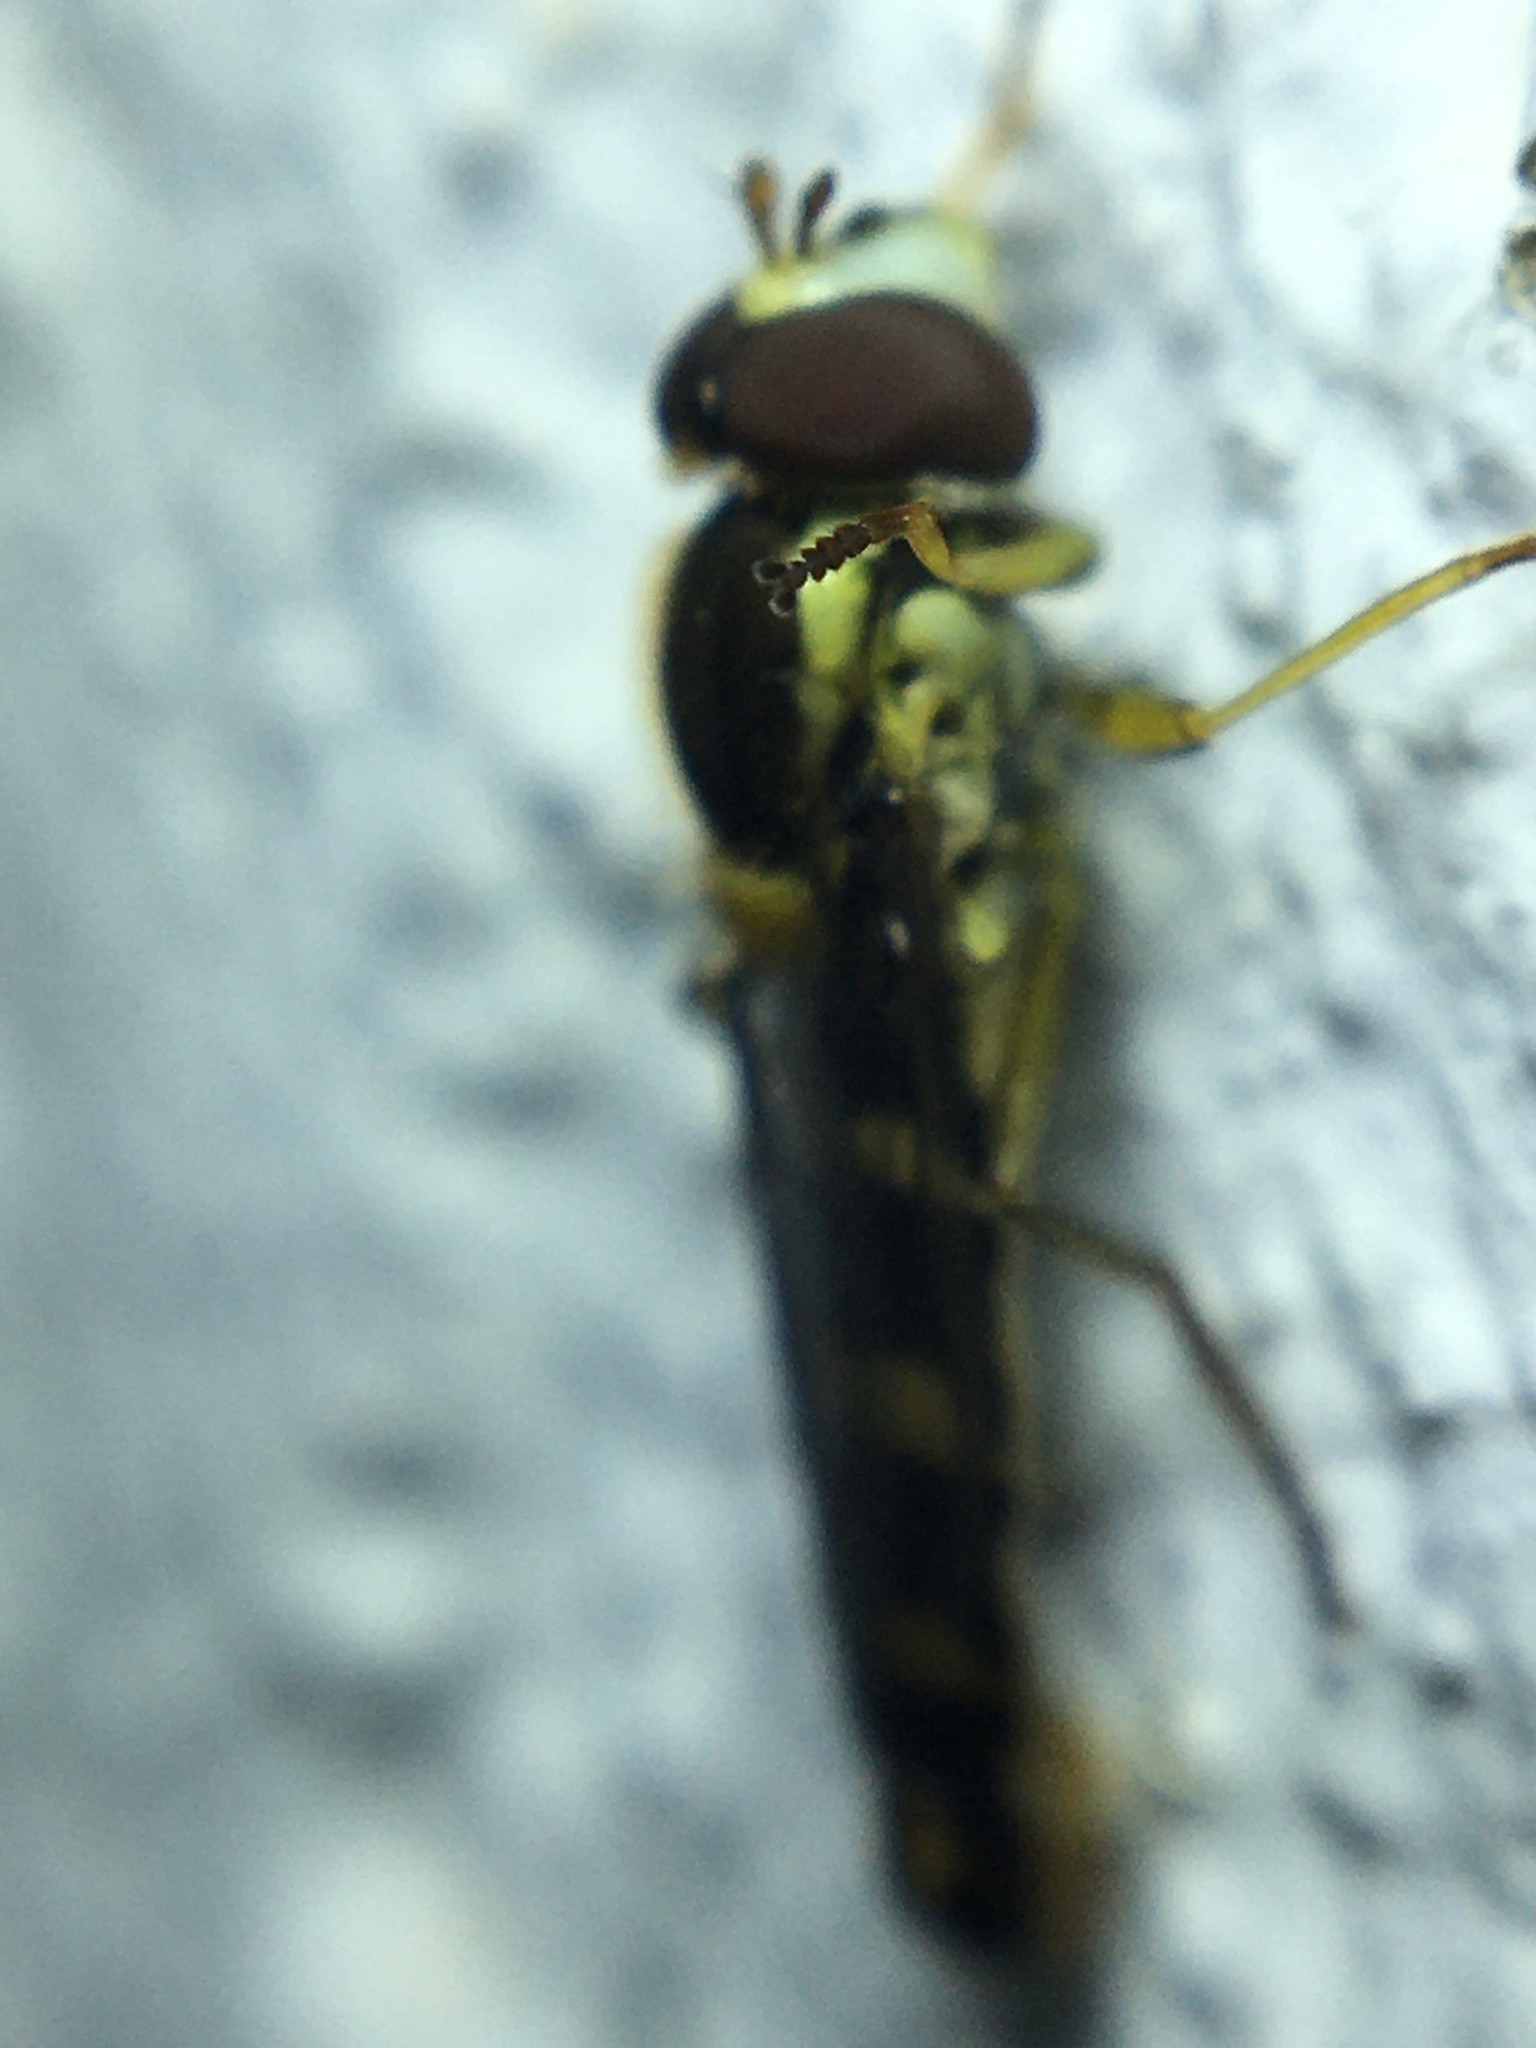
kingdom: Animalia
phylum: Arthropoda
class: Insecta
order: Diptera
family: Syrphidae
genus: Sphaerophoria
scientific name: Sphaerophoria scripta
